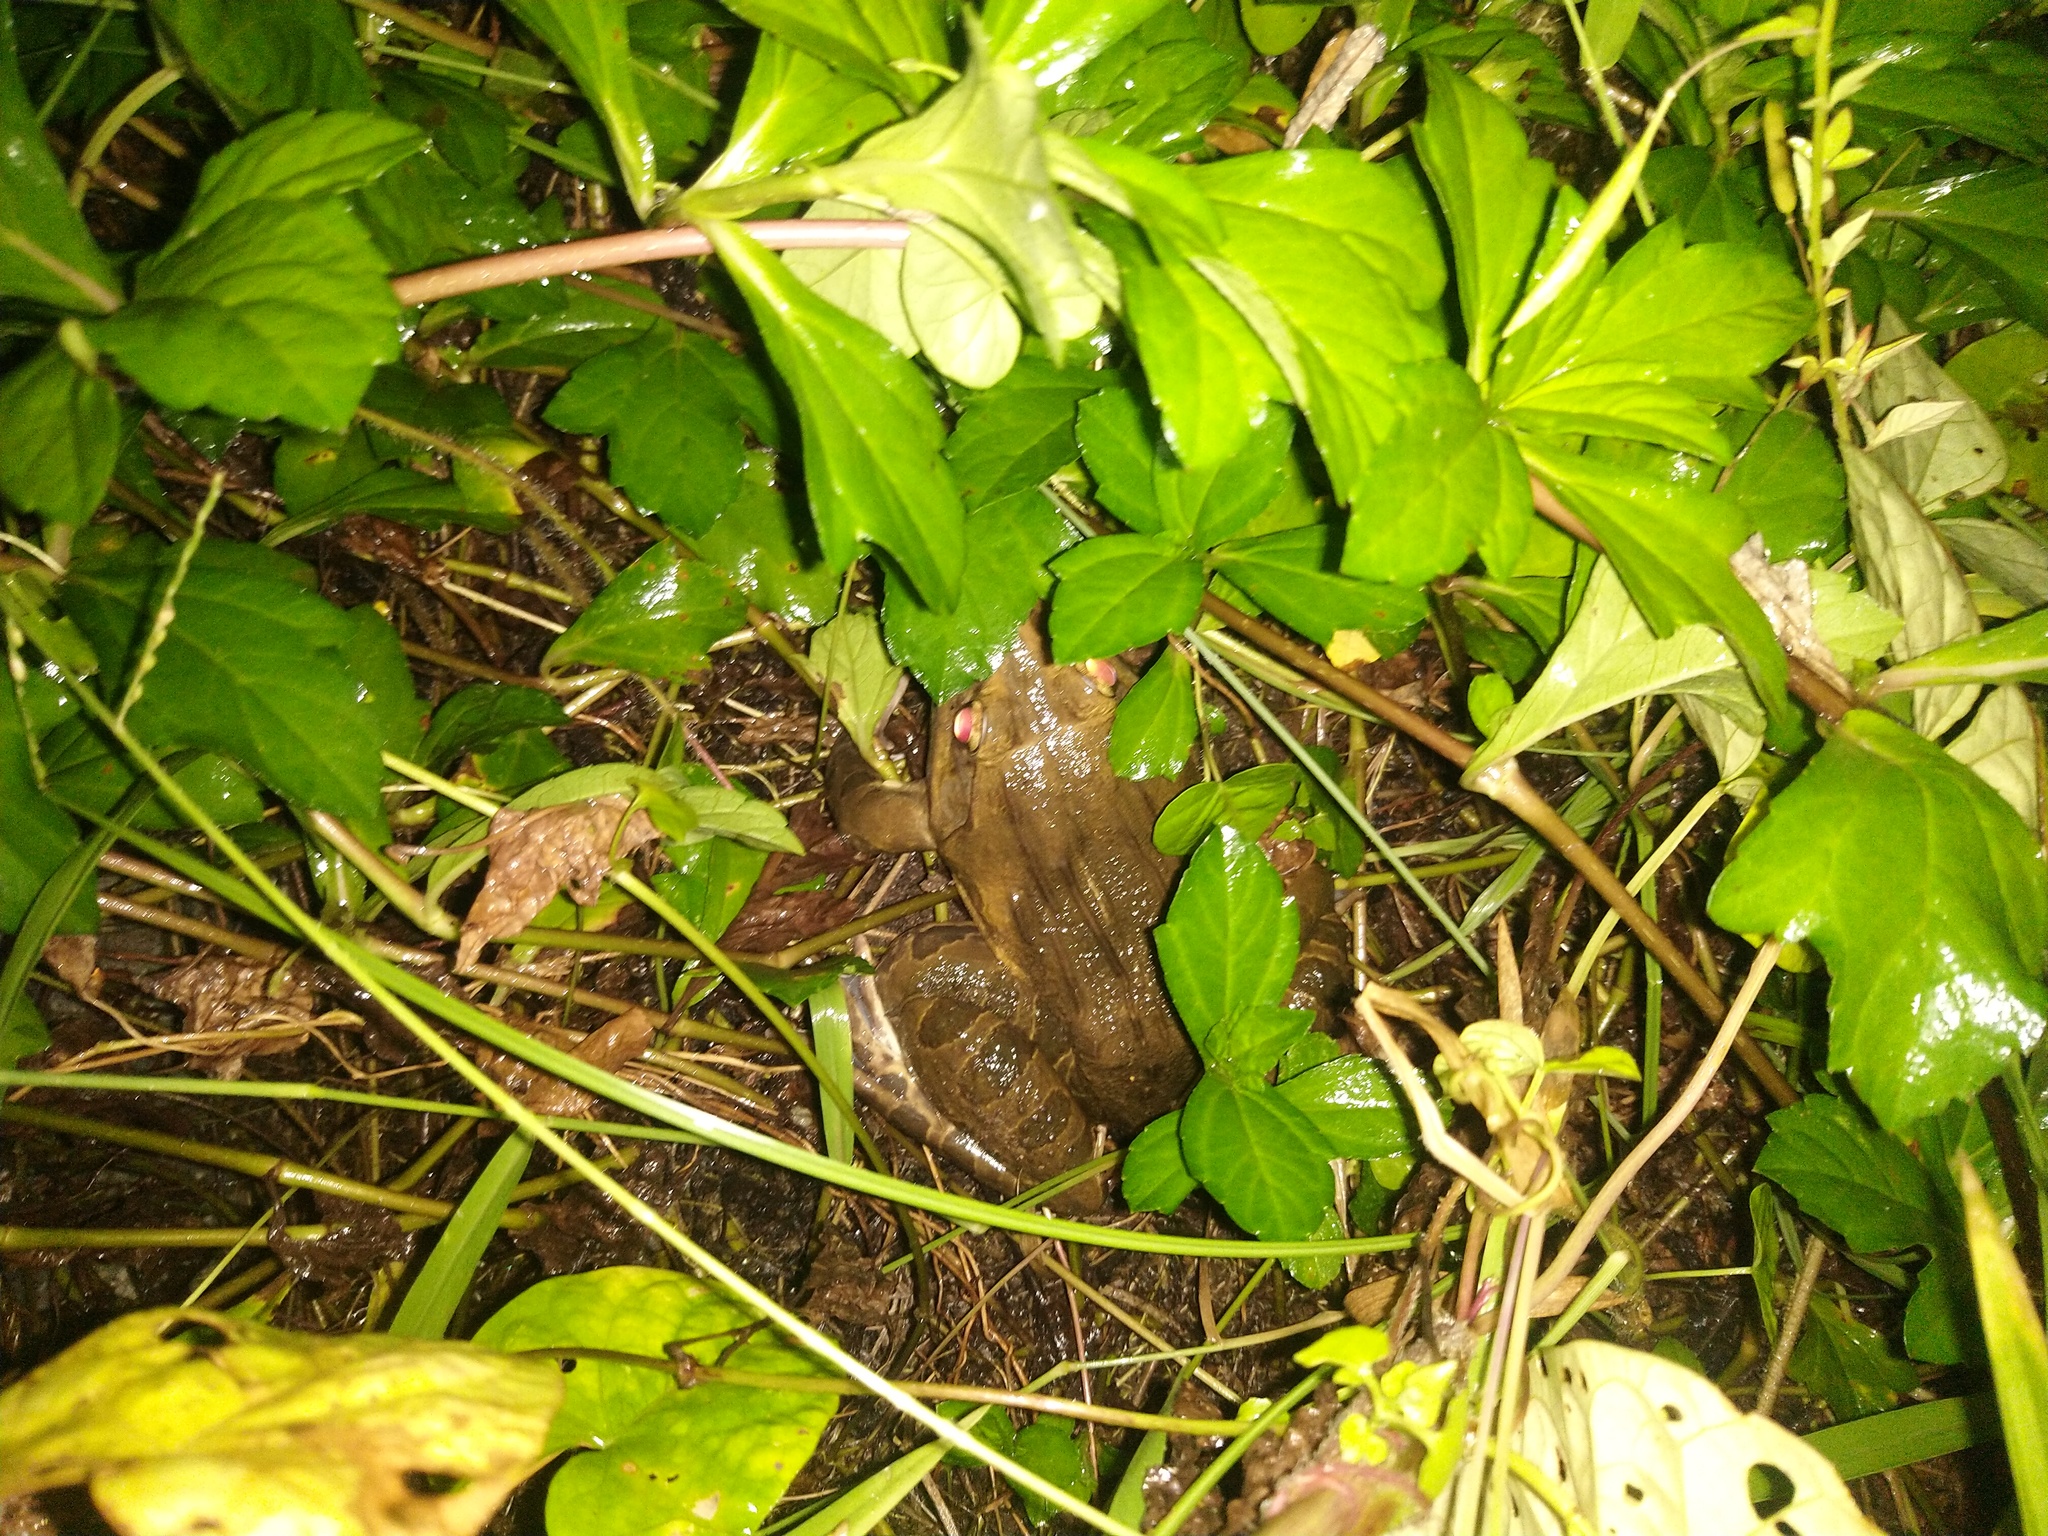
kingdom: Animalia
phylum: Chordata
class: Amphibia
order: Anura
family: Dicroglossidae
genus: Hoplobatrachus
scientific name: Hoplobatrachus tigerinus
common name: Indian bullfrog
